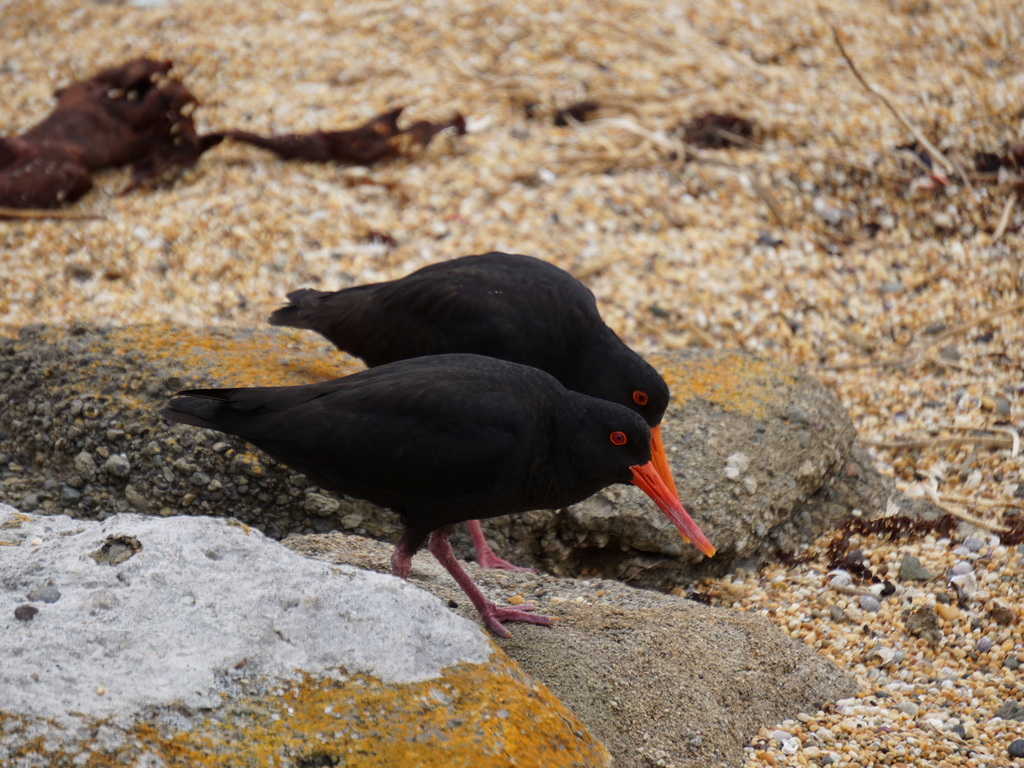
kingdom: Animalia
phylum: Chordata
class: Aves
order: Charadriiformes
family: Haematopodidae
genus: Haematopus
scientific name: Haematopus unicolor
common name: Variable oystercatcher
